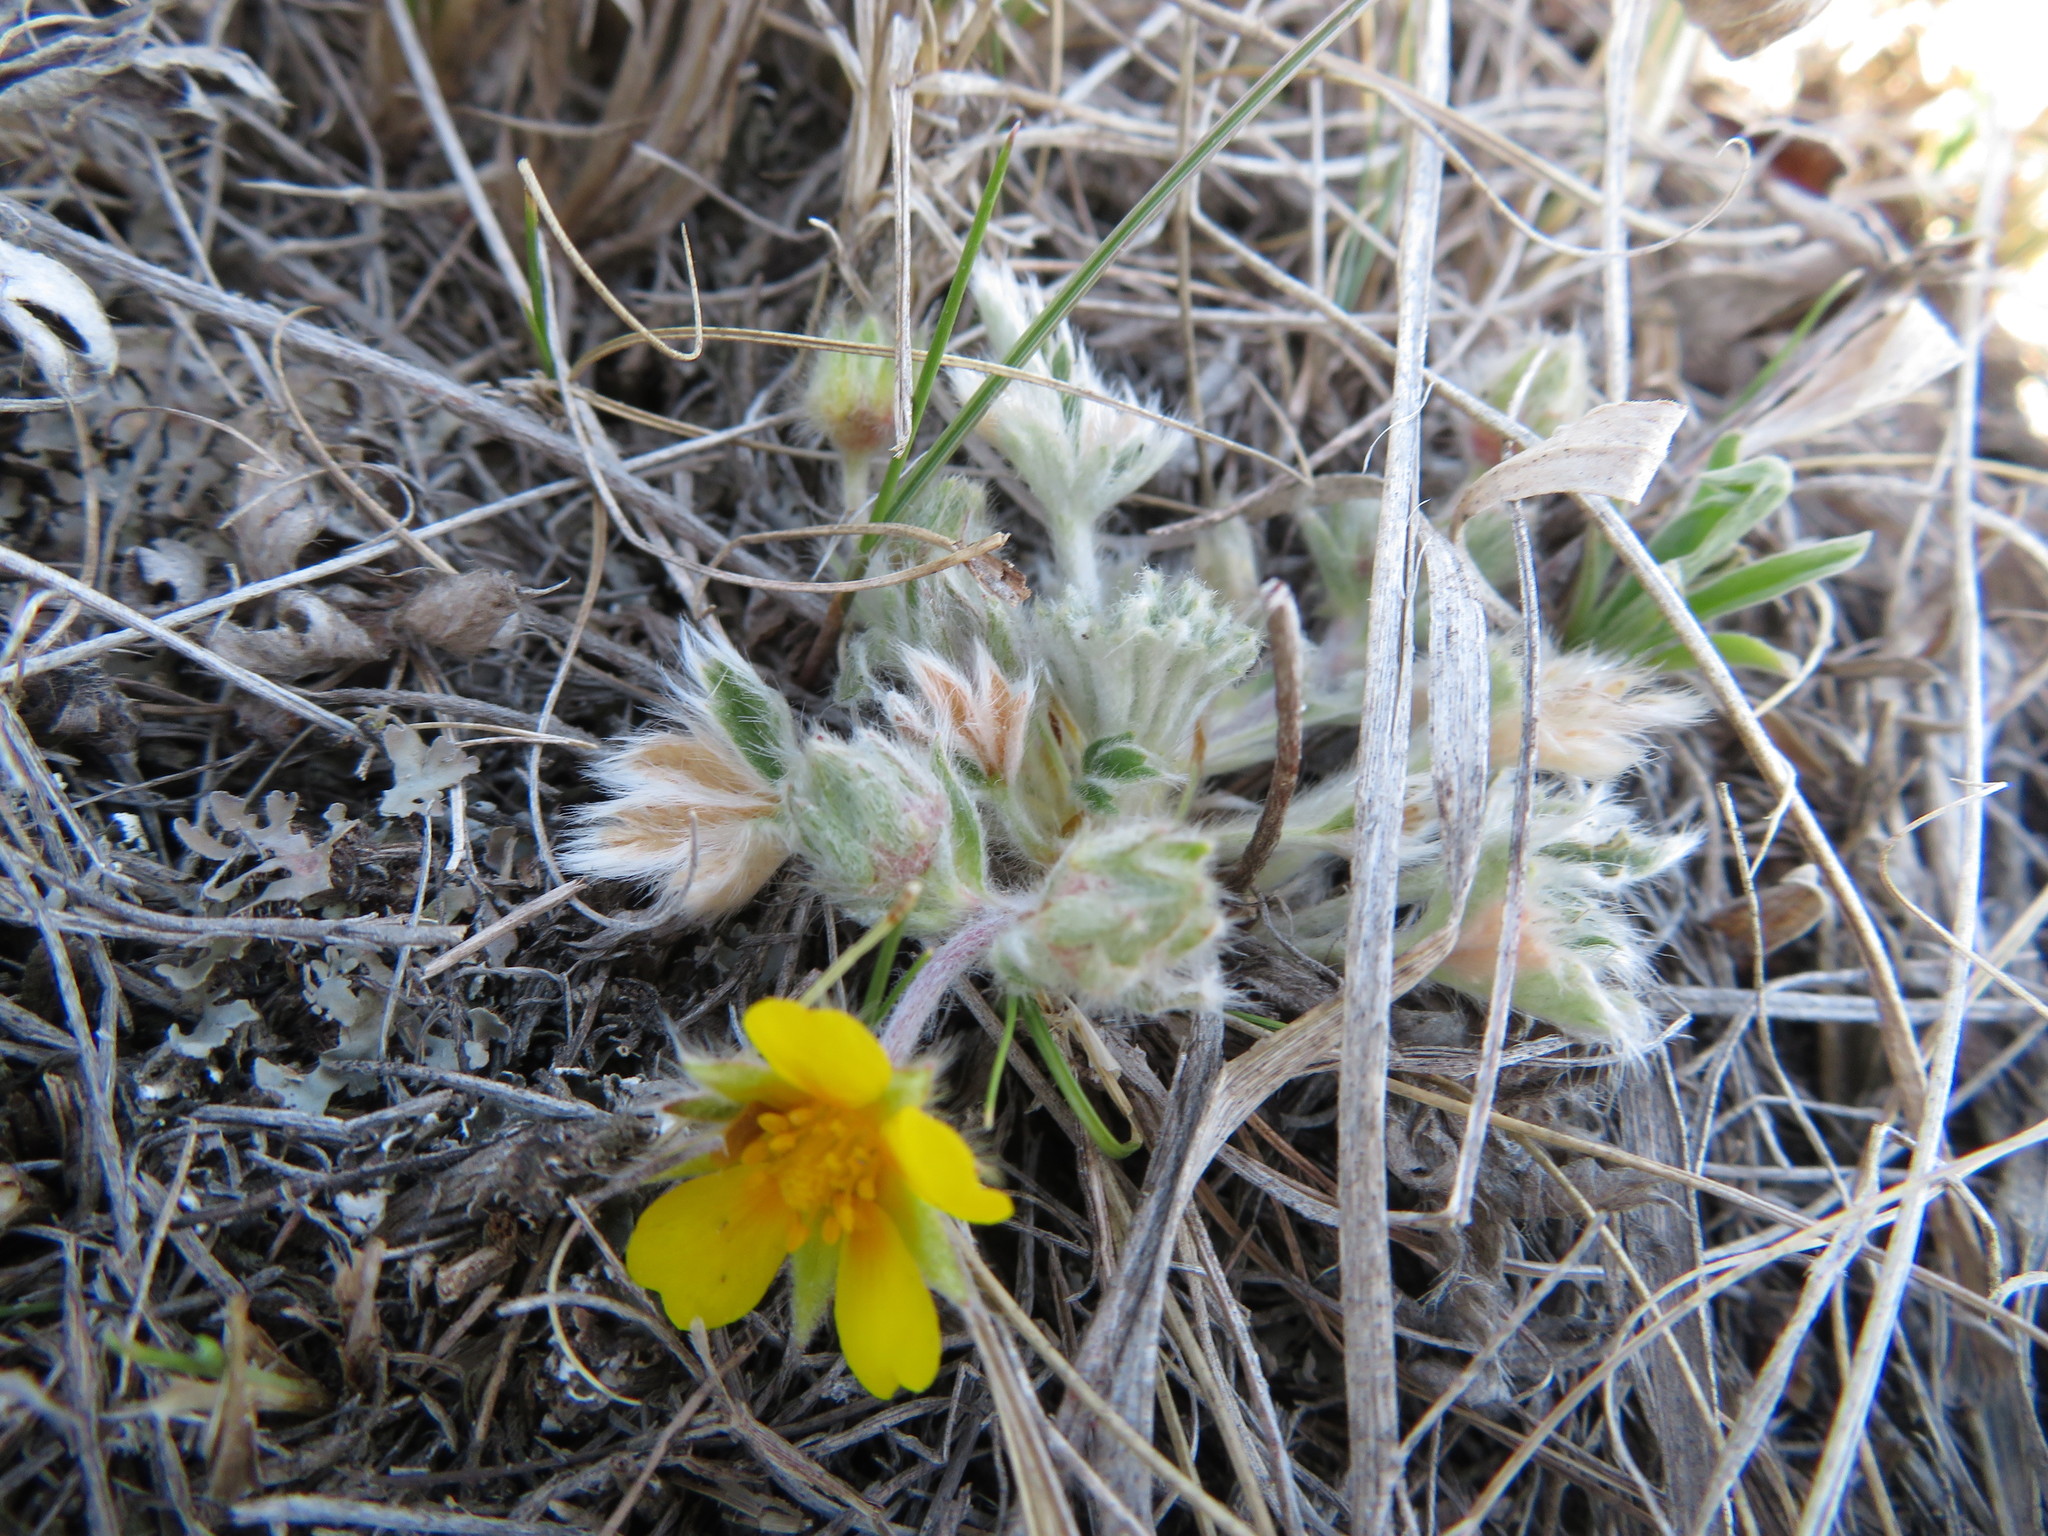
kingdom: Plantae
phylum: Tracheophyta
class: Magnoliopsida
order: Rosales
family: Rosaceae
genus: Potentilla
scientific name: Potentilla concinna
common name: Early cinquefoil
